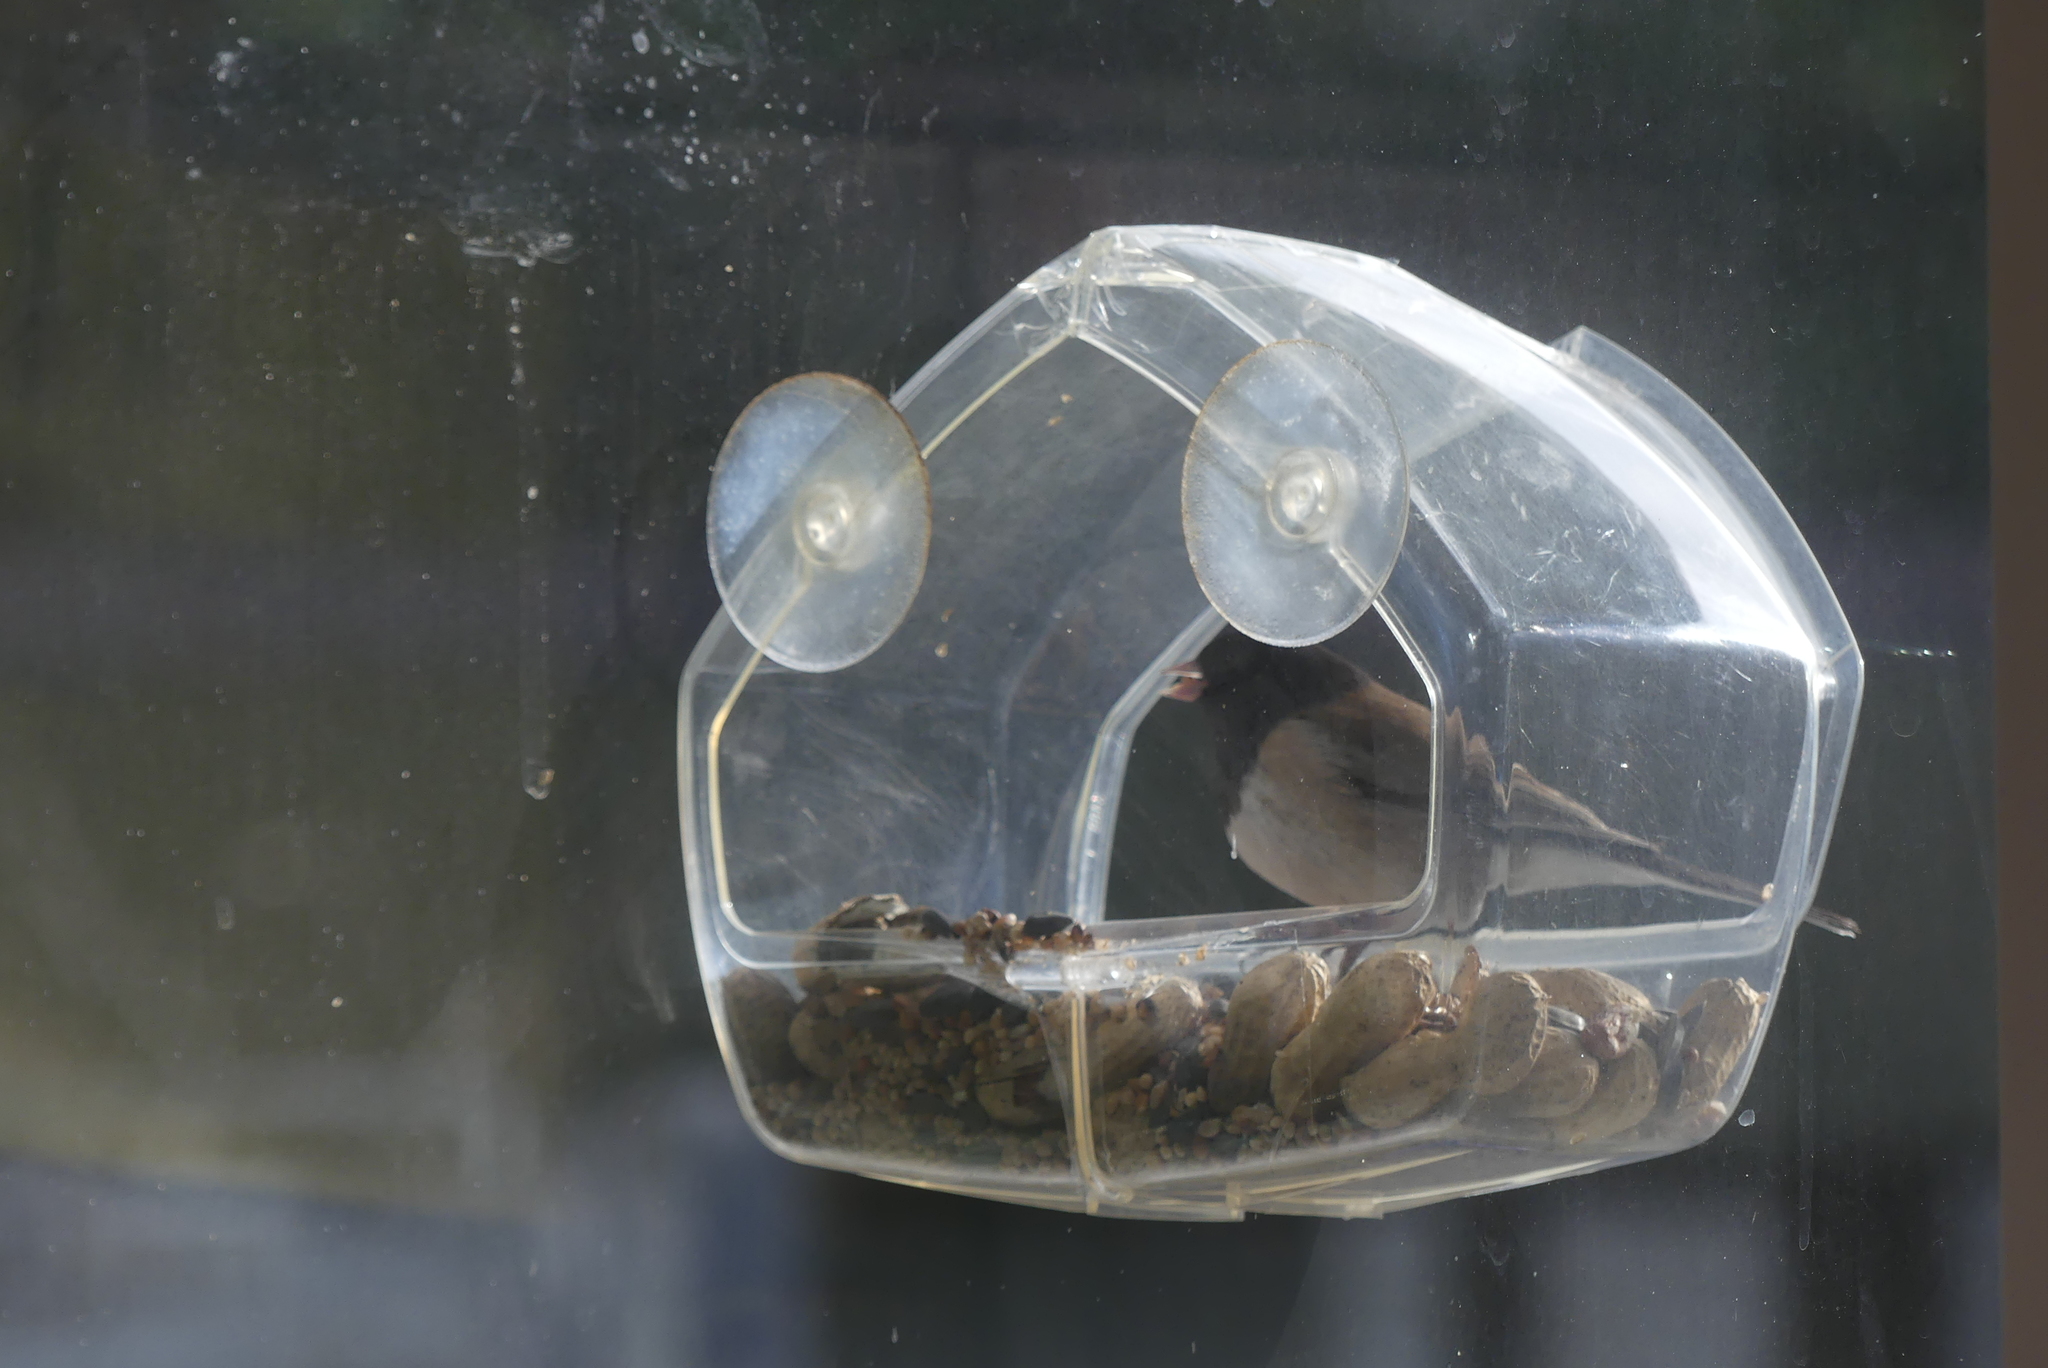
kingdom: Animalia
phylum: Chordata
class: Aves
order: Passeriformes
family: Passerellidae
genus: Junco
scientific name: Junco hyemalis
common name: Dark-eyed junco
